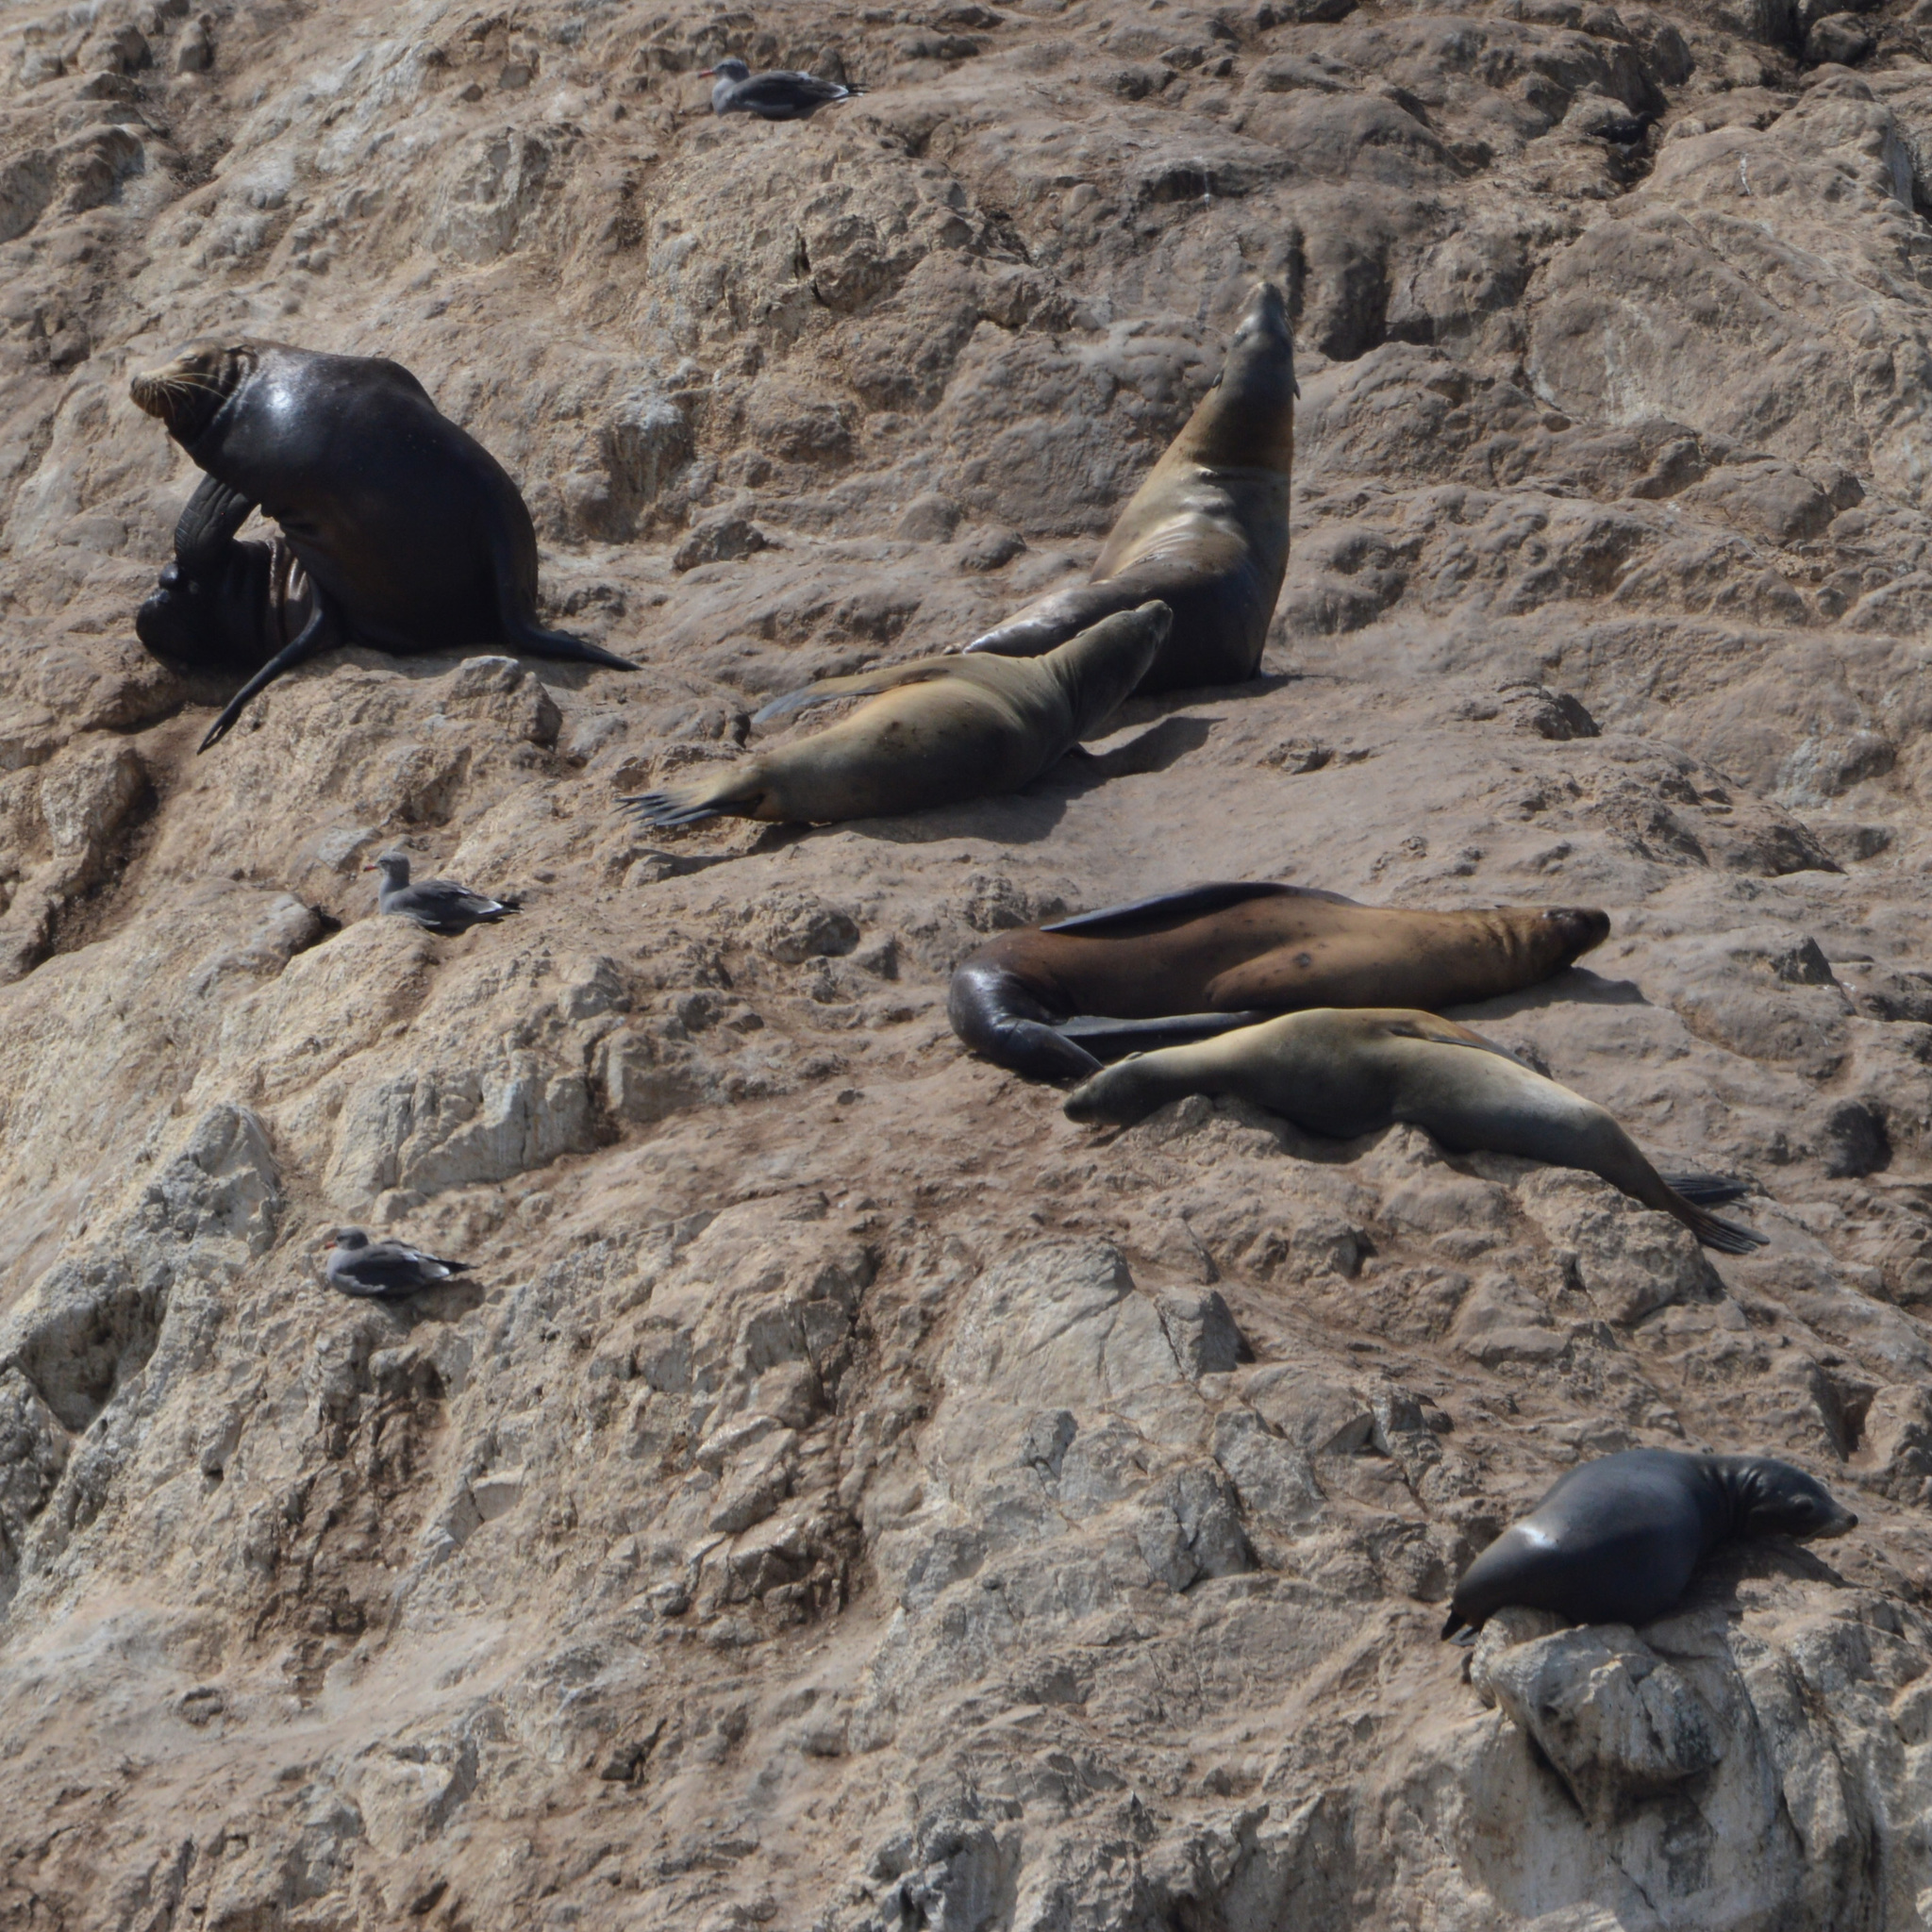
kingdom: Animalia
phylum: Chordata
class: Mammalia
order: Carnivora
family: Otariidae
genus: Zalophus
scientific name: Zalophus californianus
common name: California sea lion
